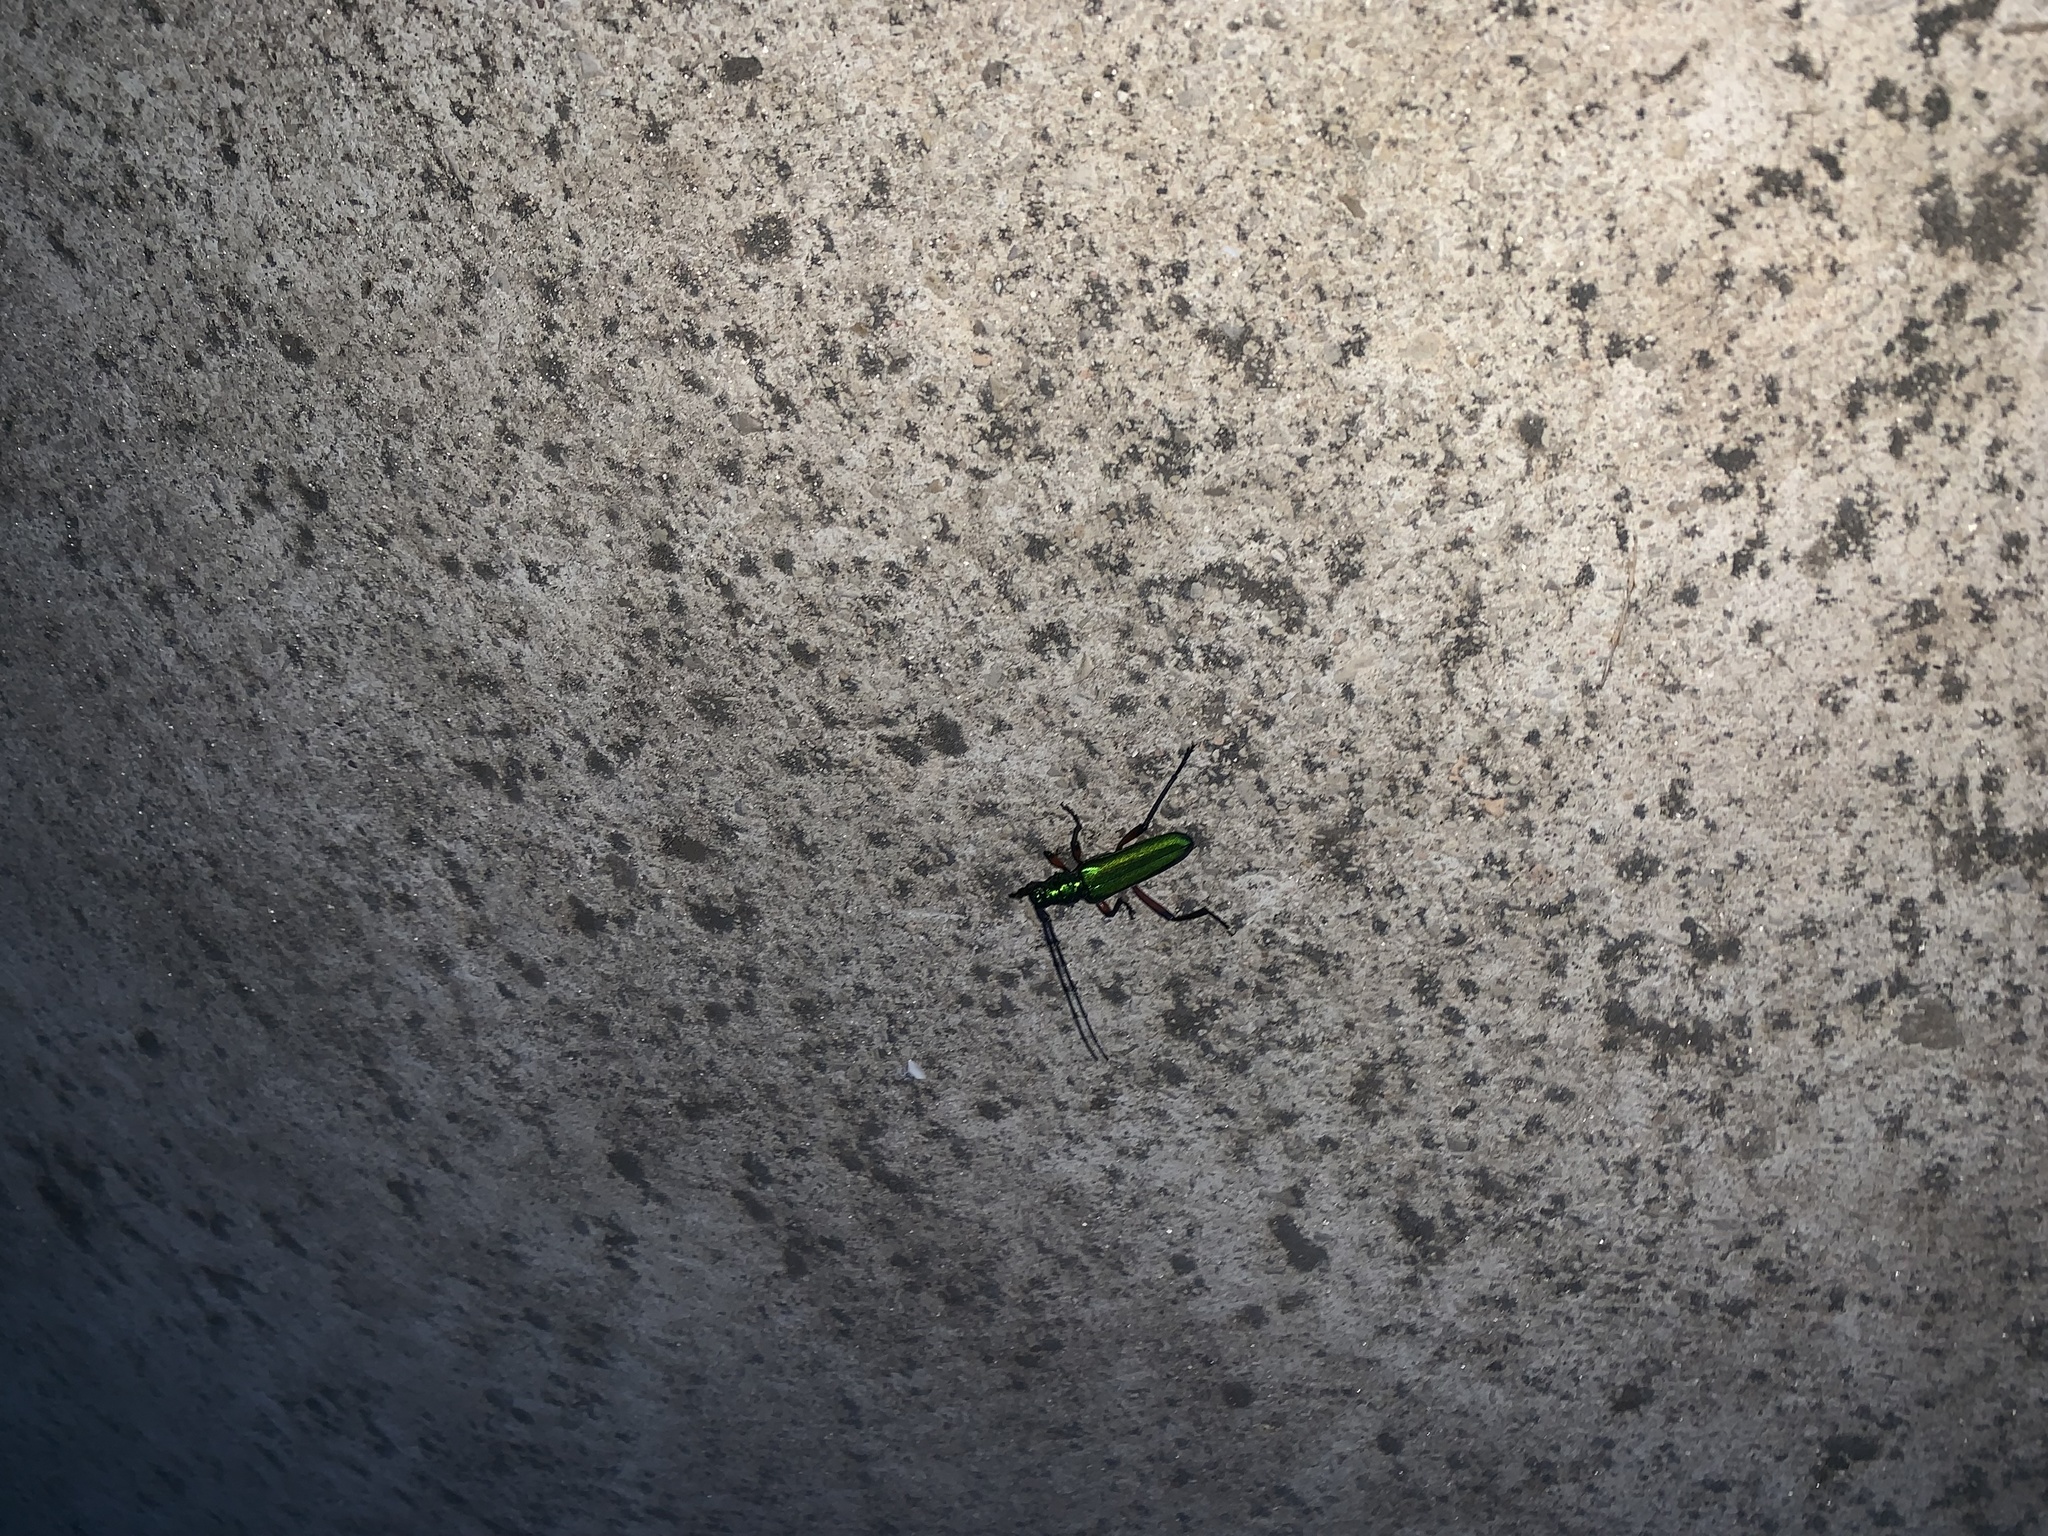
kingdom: Animalia
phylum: Arthropoda
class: Insecta
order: Coleoptera
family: Cerambycidae
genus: Plinthocoelium
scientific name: Plinthocoelium suaveolens
